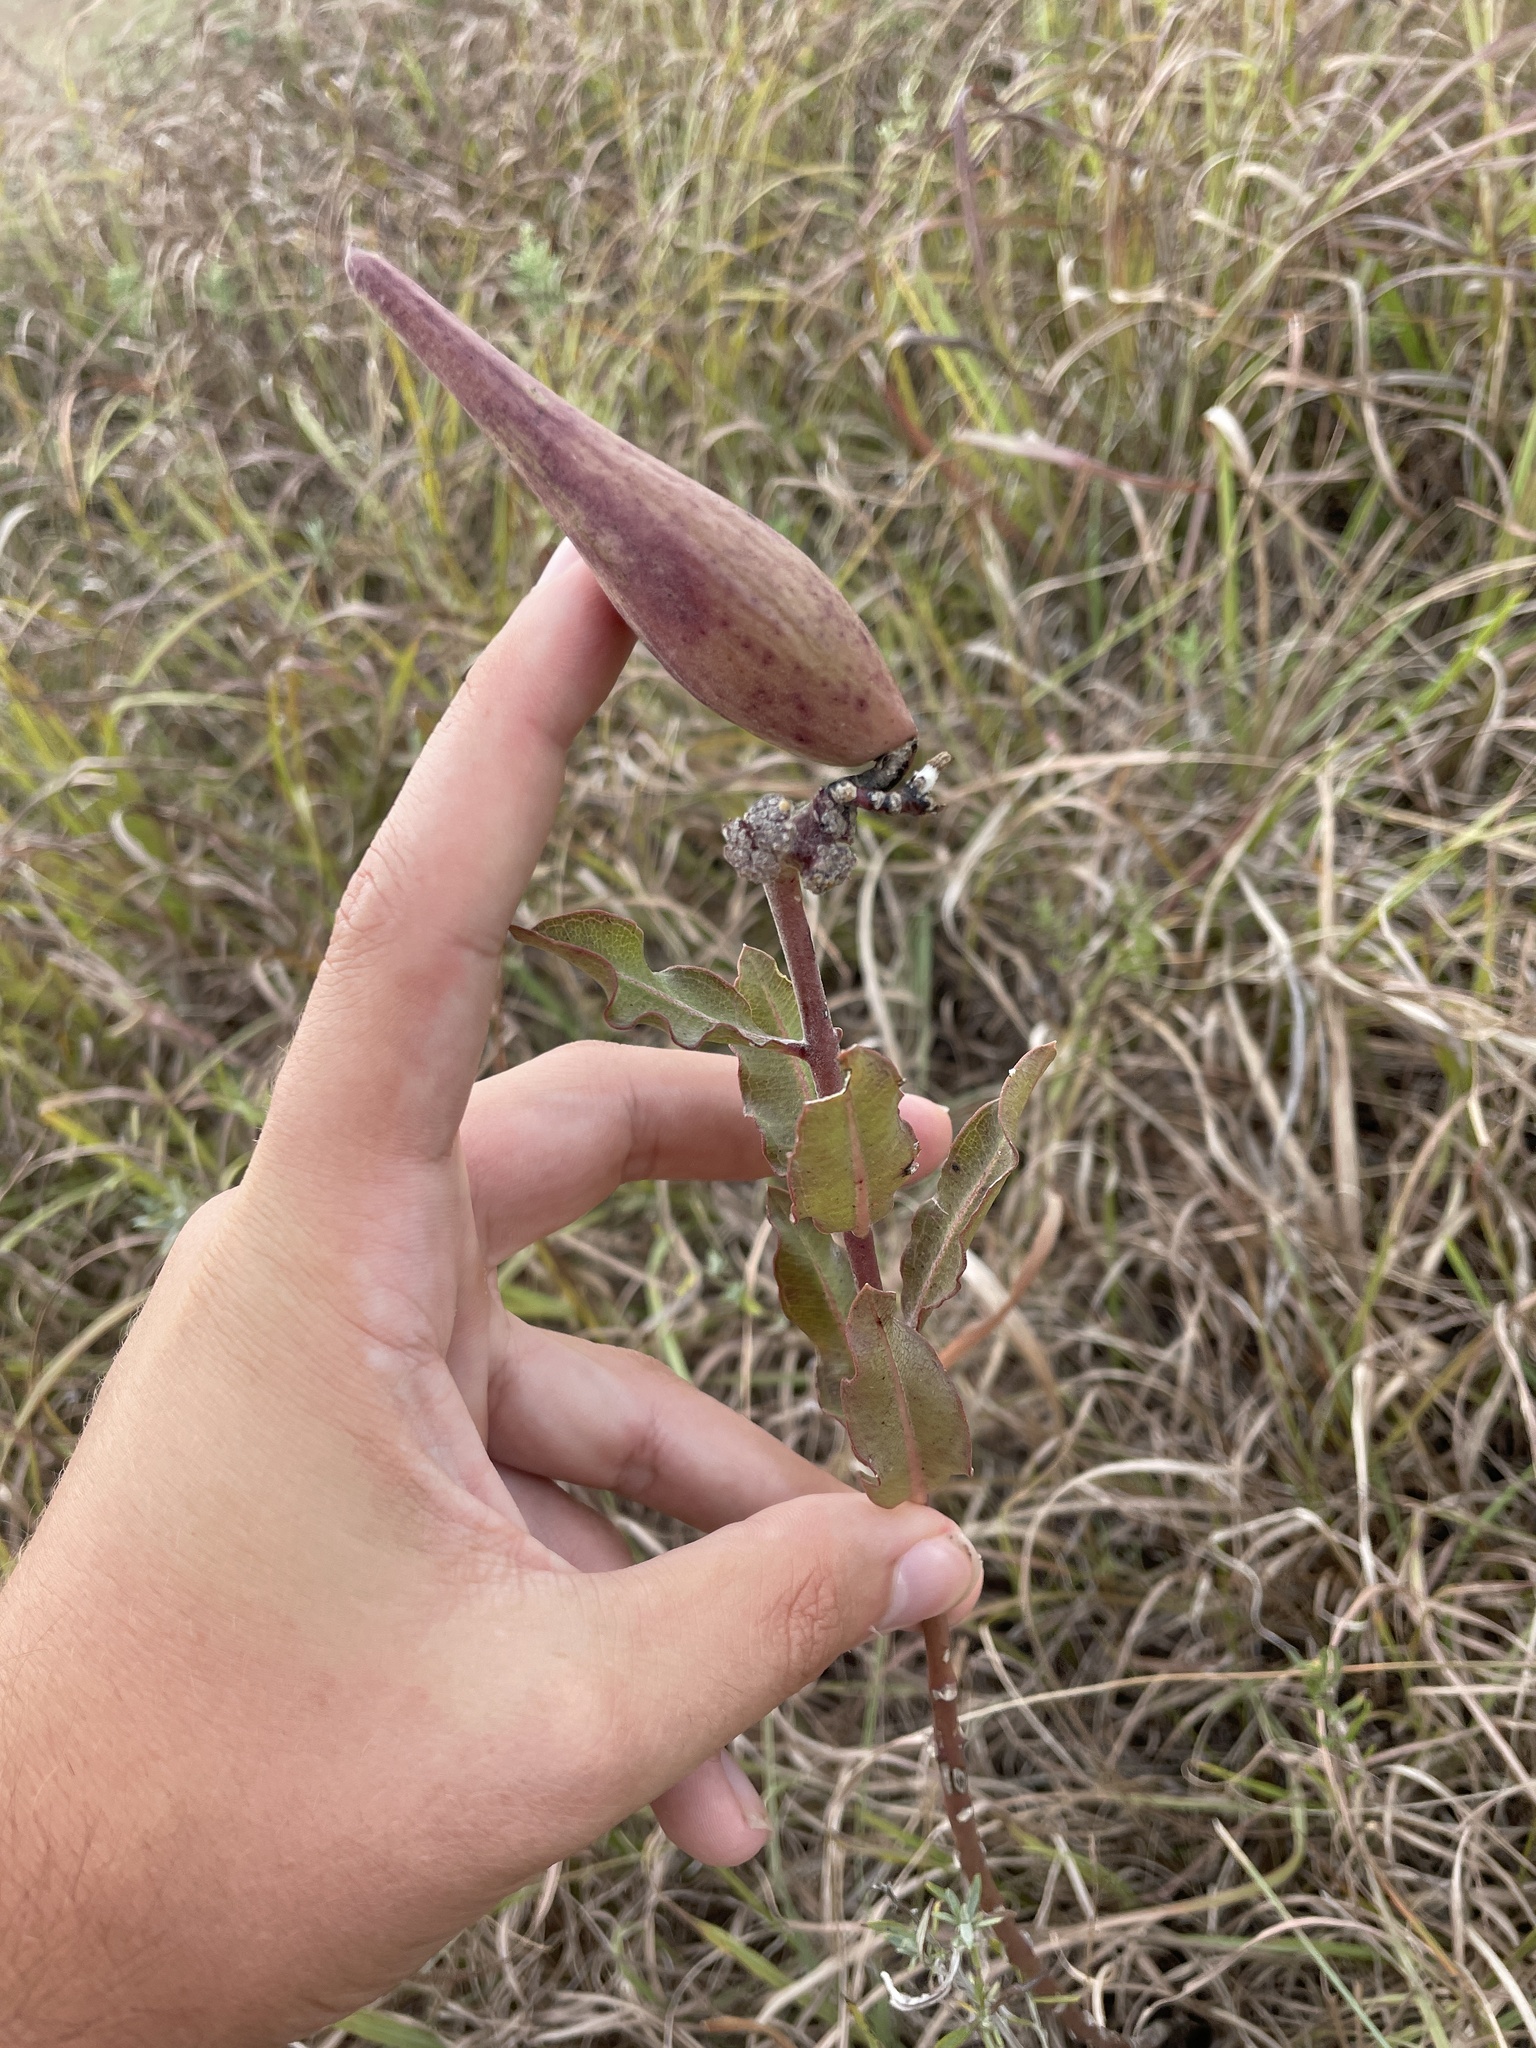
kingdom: Plantae
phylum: Tracheophyta
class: Magnoliopsida
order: Gentianales
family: Apocynaceae
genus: Asclepias
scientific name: Asclepias viridiflora
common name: Green comet milkweed
